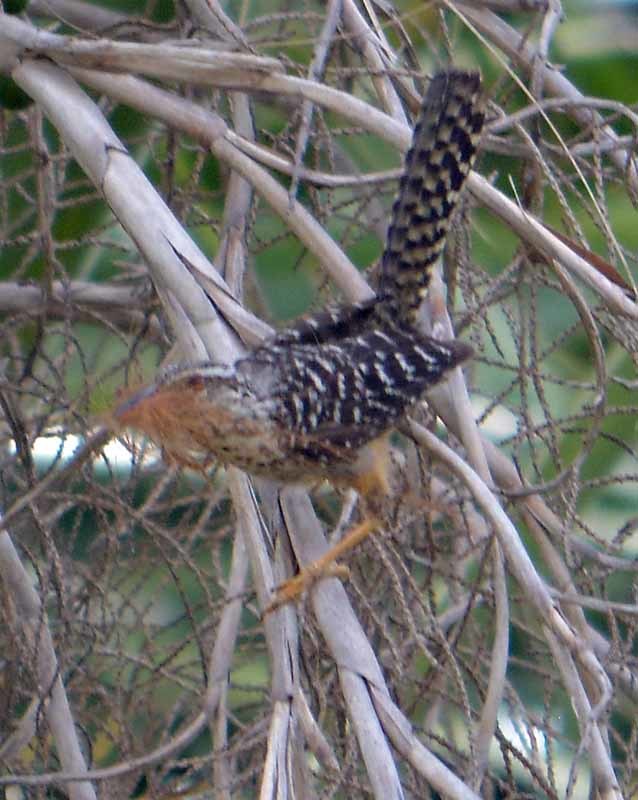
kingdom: Animalia
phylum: Chordata
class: Aves
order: Passeriformes
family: Troglodytidae
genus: Campylorhynchus
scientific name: Campylorhynchus zonatus
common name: Band-backed wren
